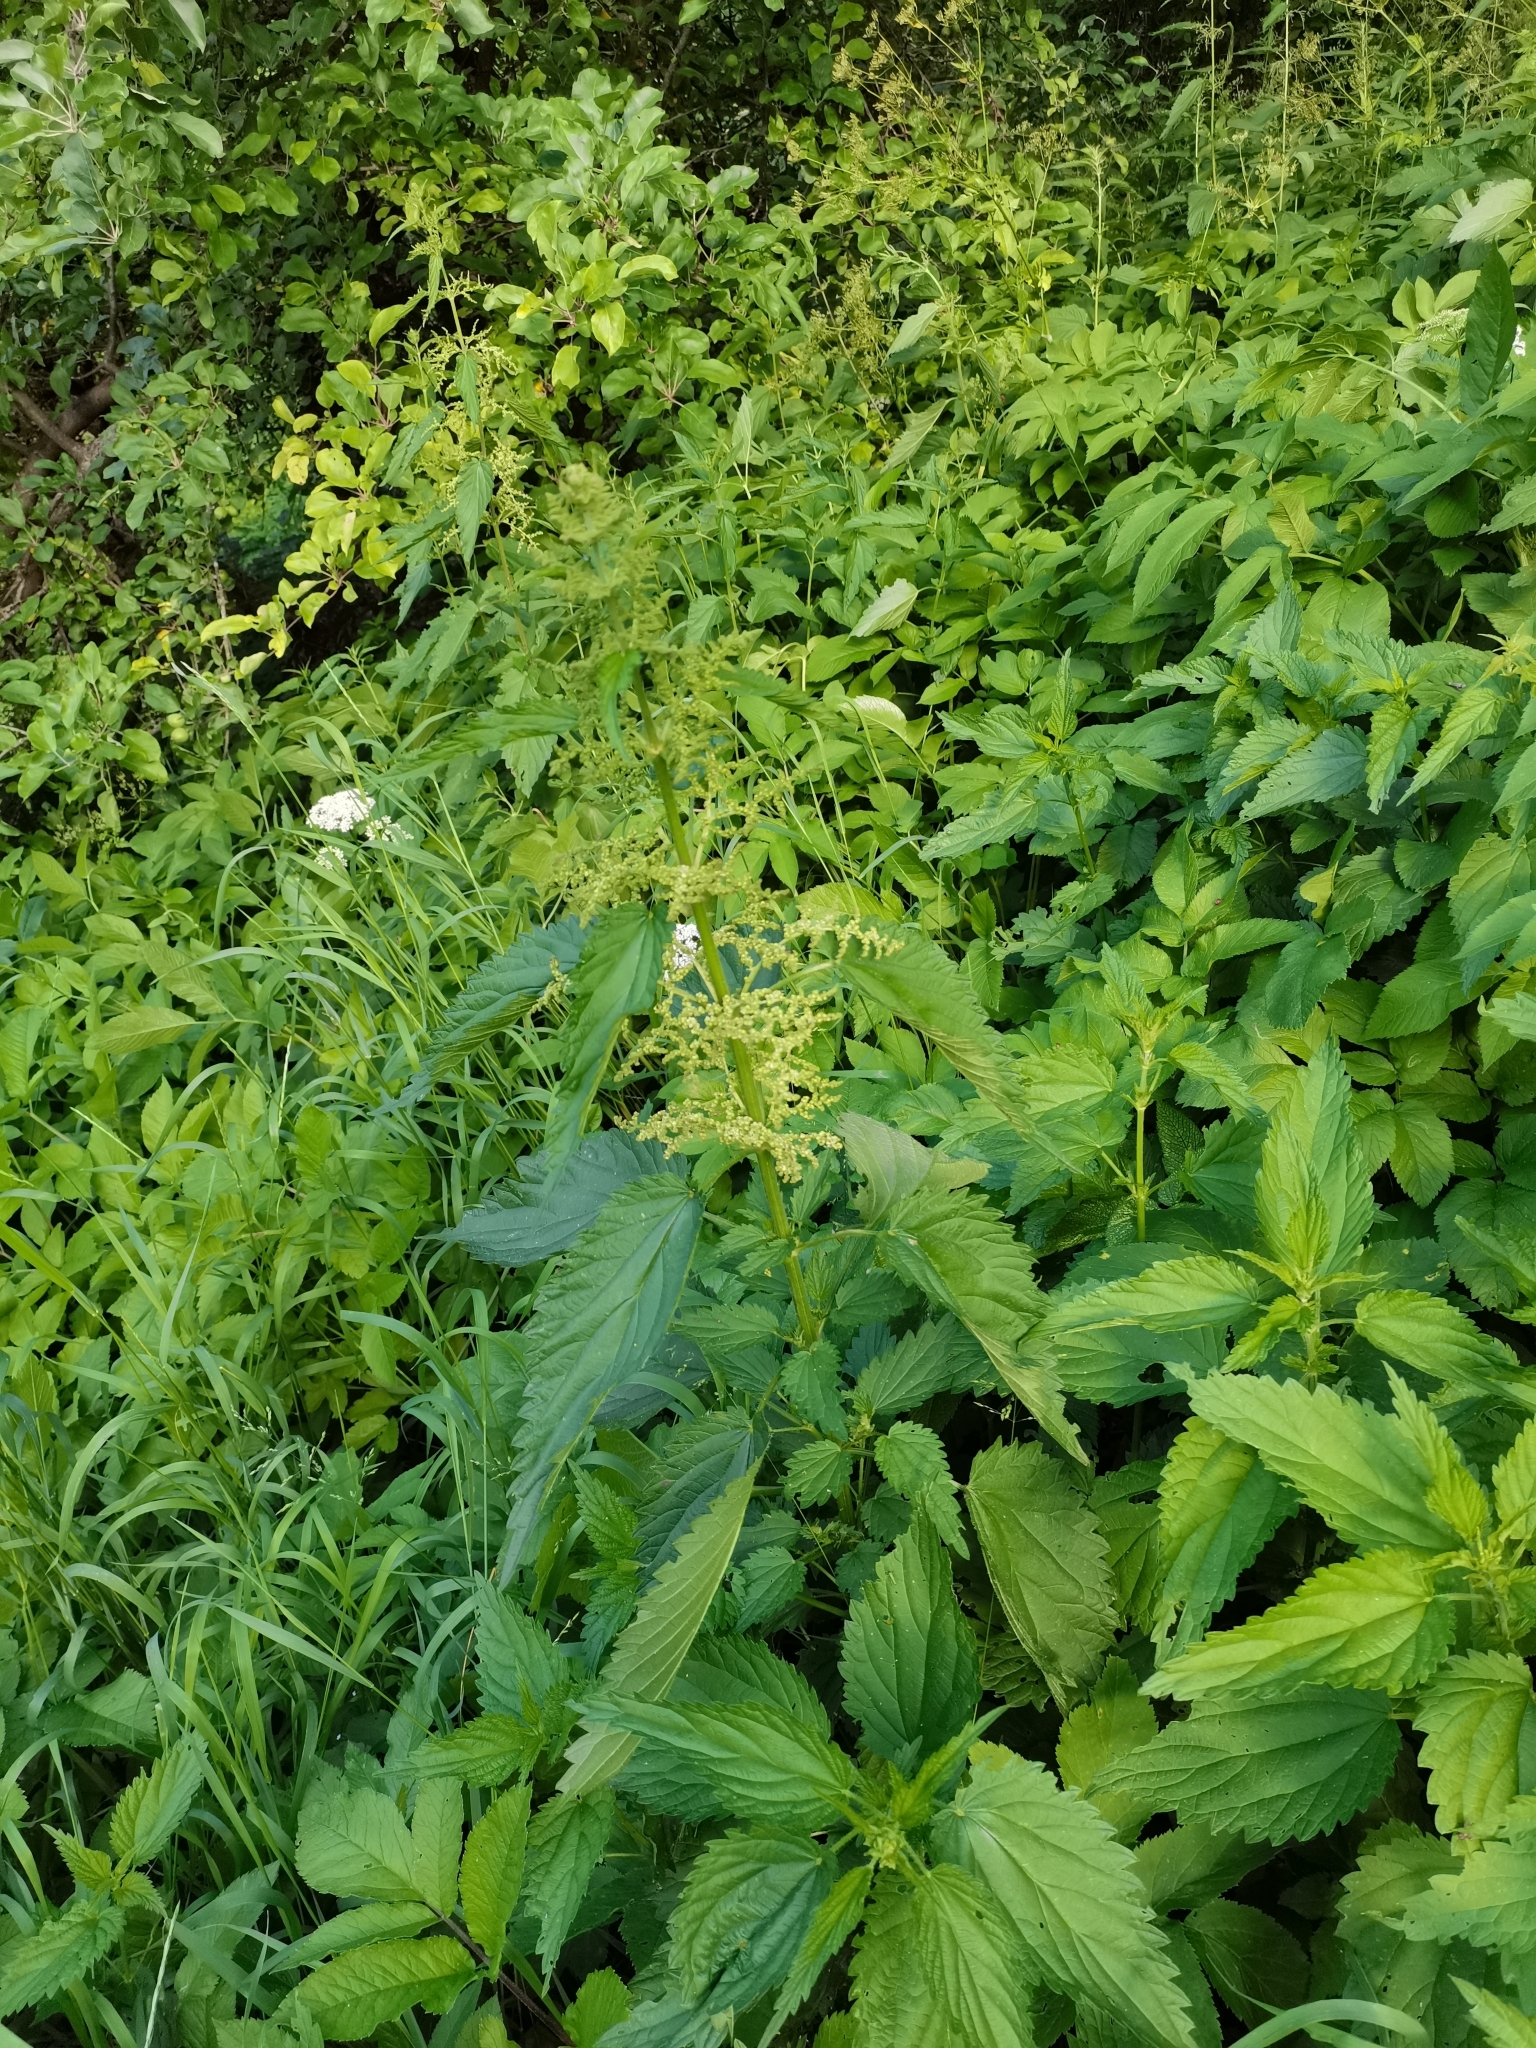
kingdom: Plantae
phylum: Tracheophyta
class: Magnoliopsida
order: Rosales
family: Urticaceae
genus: Urtica
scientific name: Urtica dioica
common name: Common nettle
